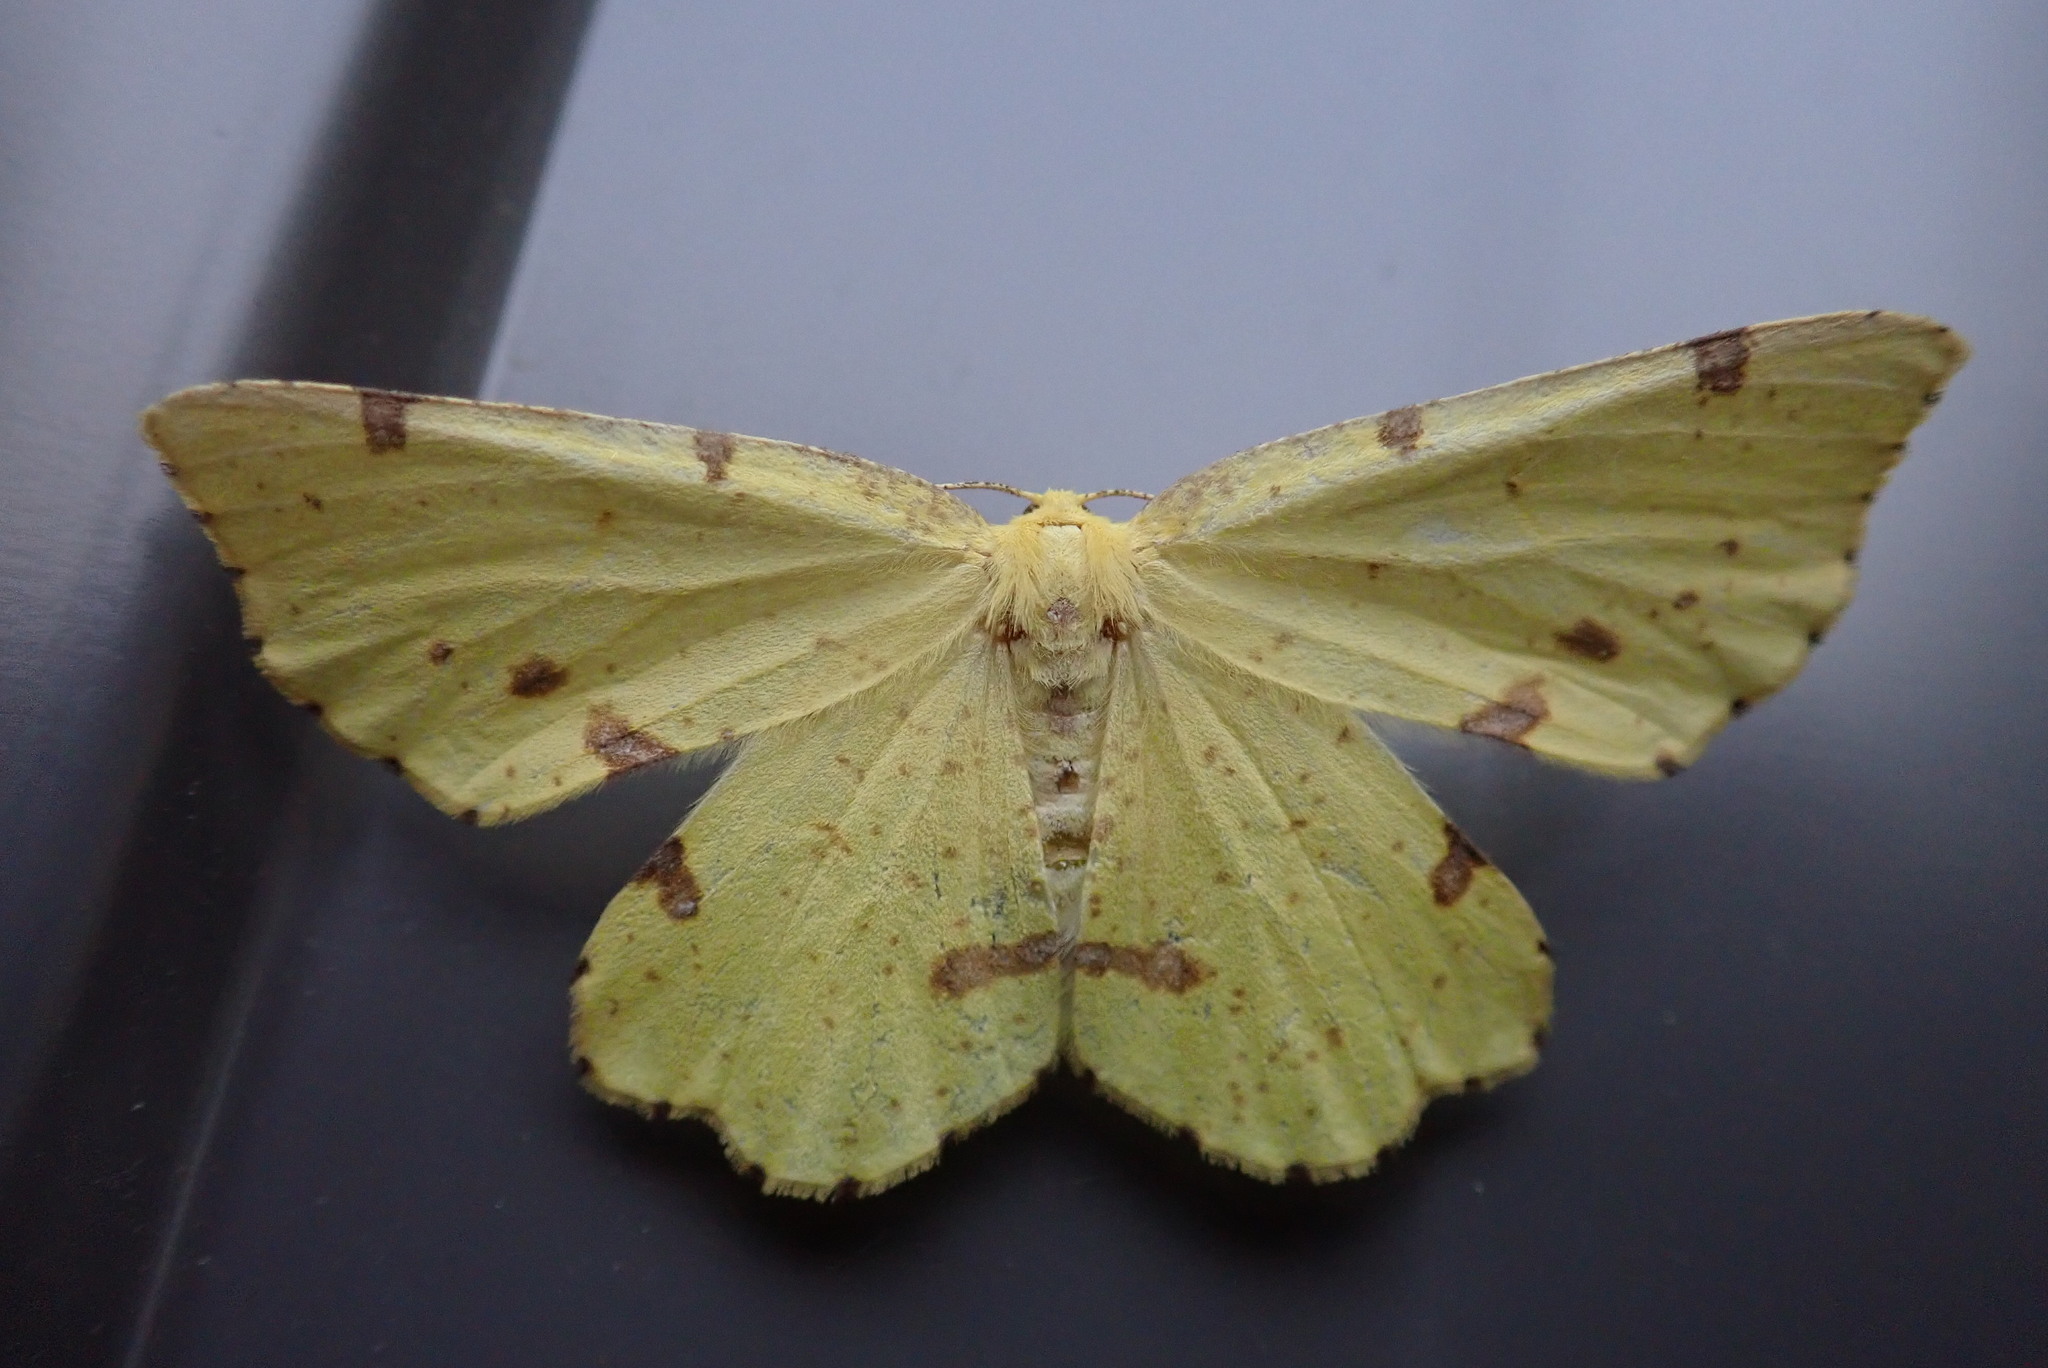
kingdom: Animalia
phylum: Arthropoda
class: Insecta
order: Lepidoptera
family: Geometridae
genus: Xanthotype
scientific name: Xanthotype
